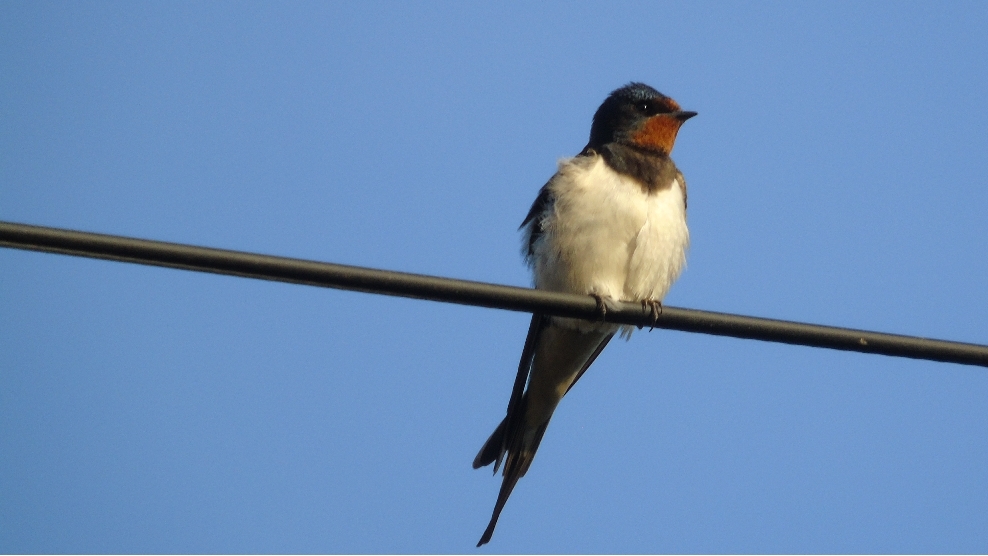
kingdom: Animalia
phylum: Chordata
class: Aves
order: Passeriformes
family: Hirundinidae
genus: Hirundo
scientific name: Hirundo rustica
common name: Barn swallow
